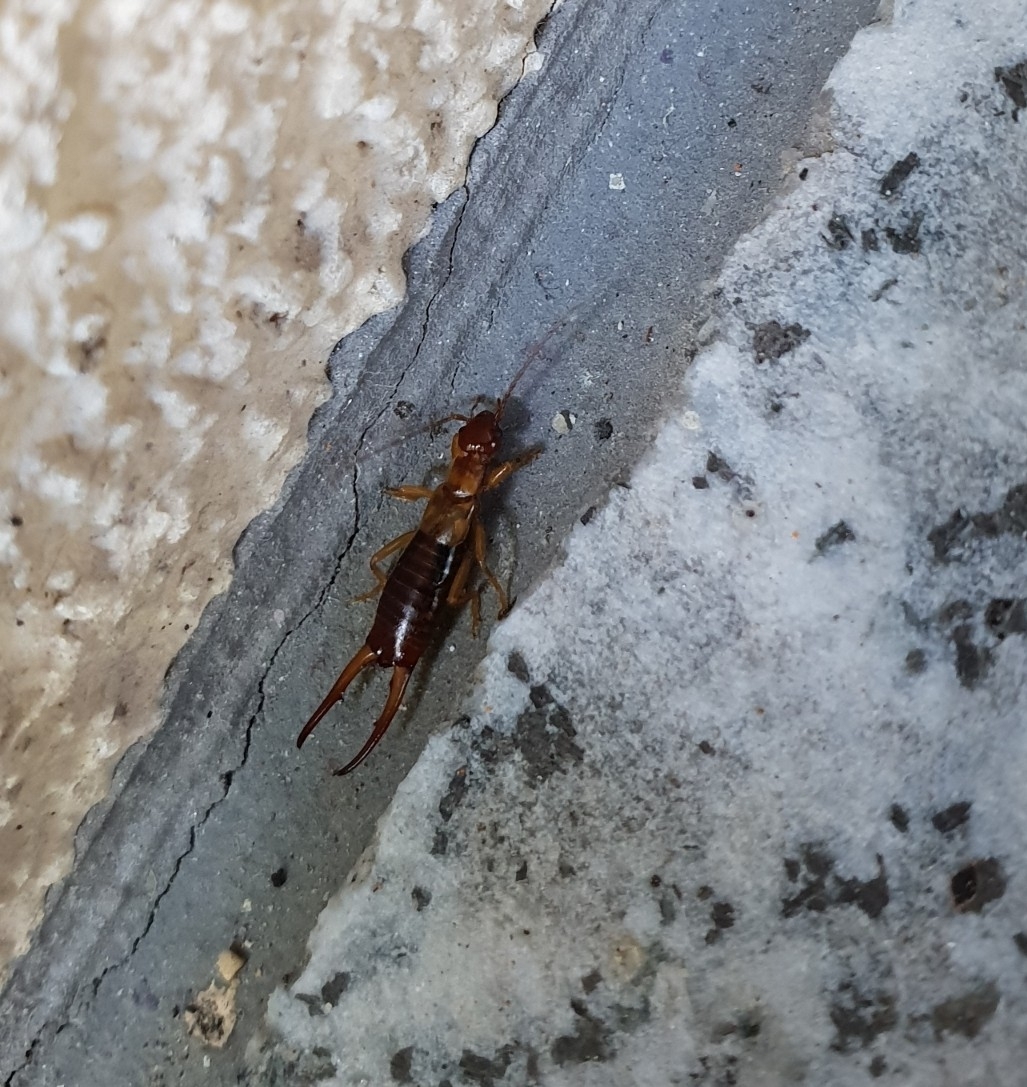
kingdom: Animalia
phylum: Arthropoda
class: Insecta
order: Dermaptera
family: Forficulidae
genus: Apterygida
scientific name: Apterygida albipennis
